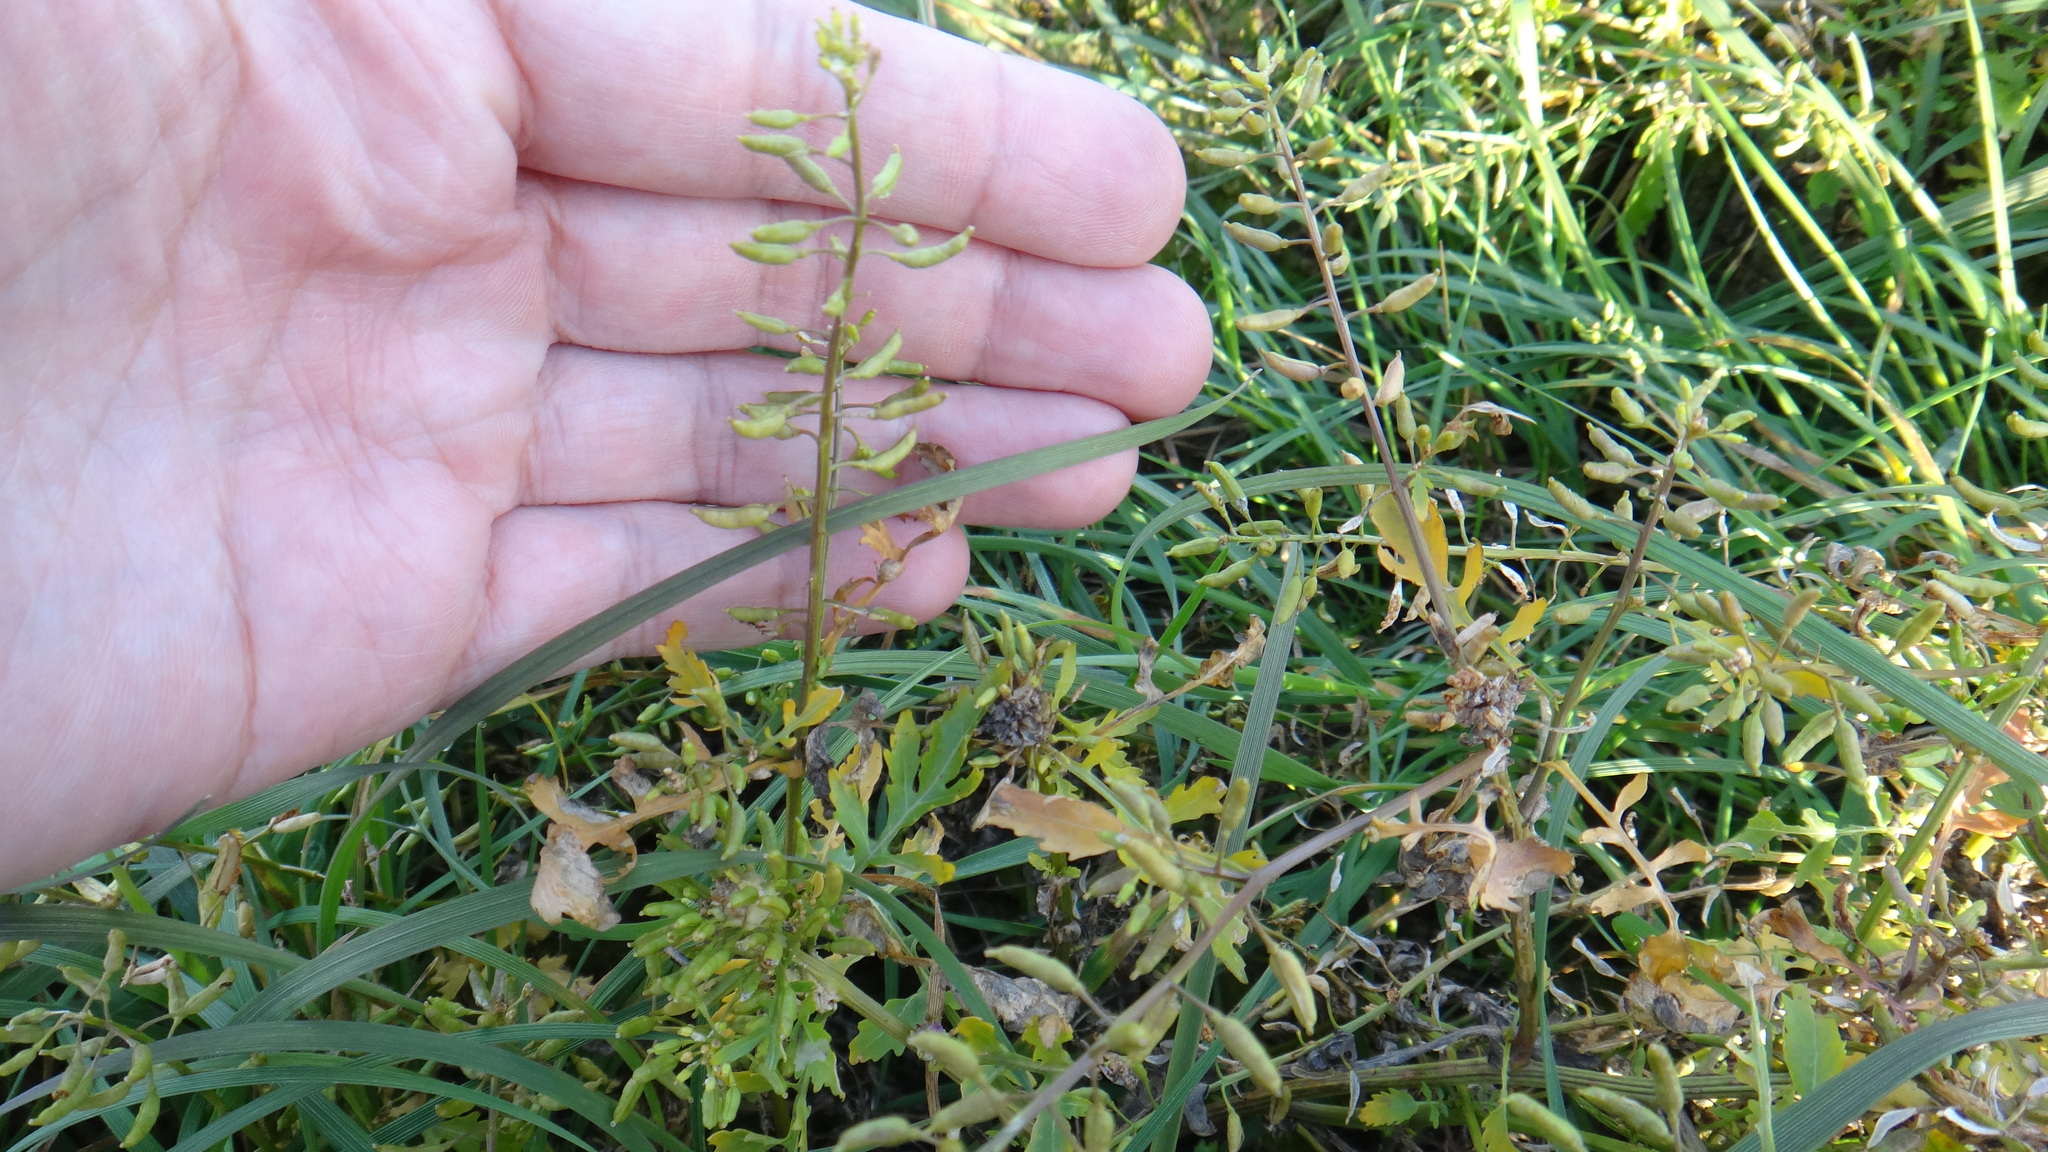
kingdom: Plantae
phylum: Tracheophyta
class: Magnoliopsida
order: Brassicales
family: Brassicaceae
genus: Rorippa
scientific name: Rorippa palustris
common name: Marsh yellow-cress
